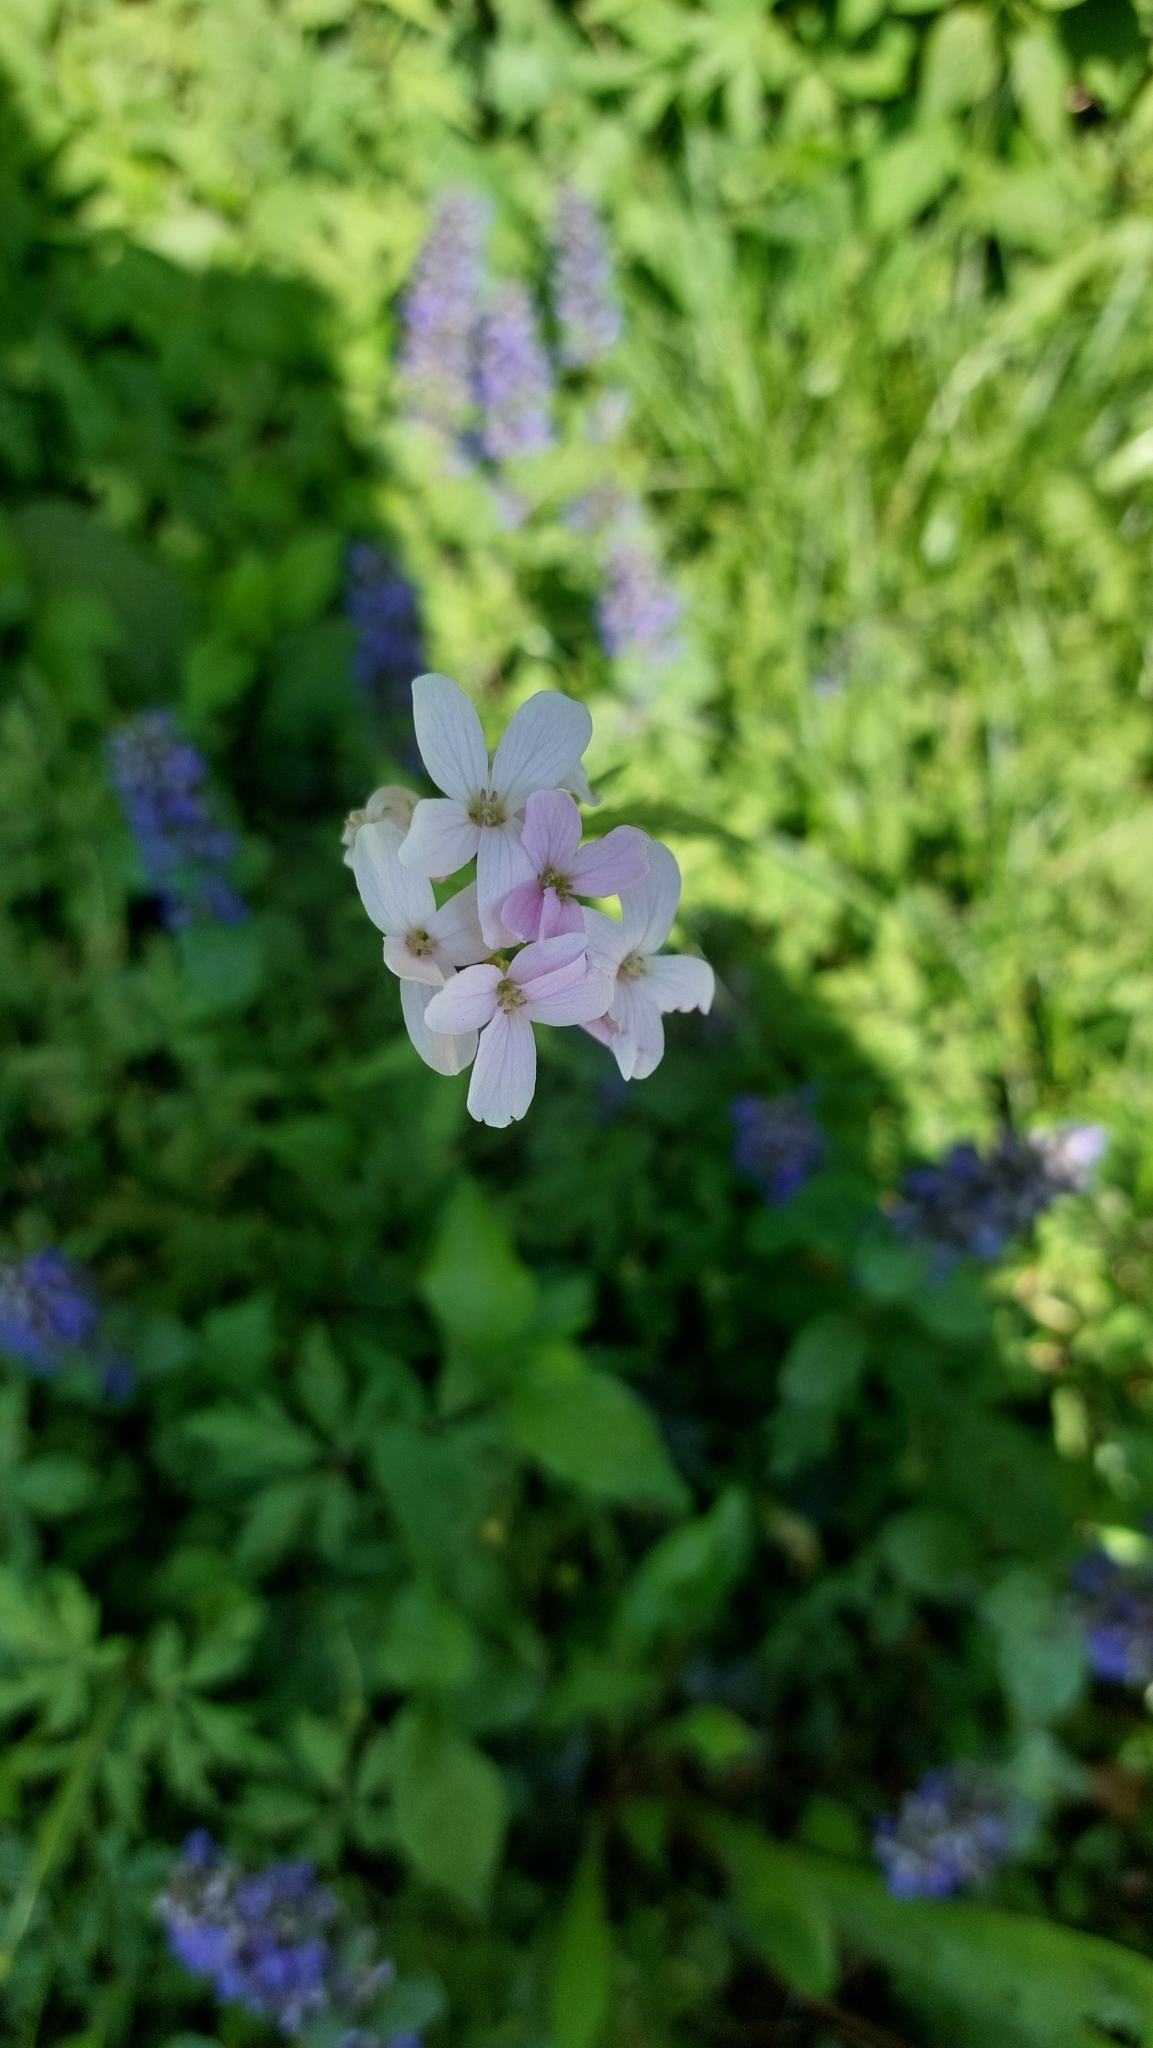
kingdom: Plantae
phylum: Tracheophyta
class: Magnoliopsida
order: Brassicales
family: Brassicaceae
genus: Cardamine
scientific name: Cardamine pratensis
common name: Cuckoo flower
